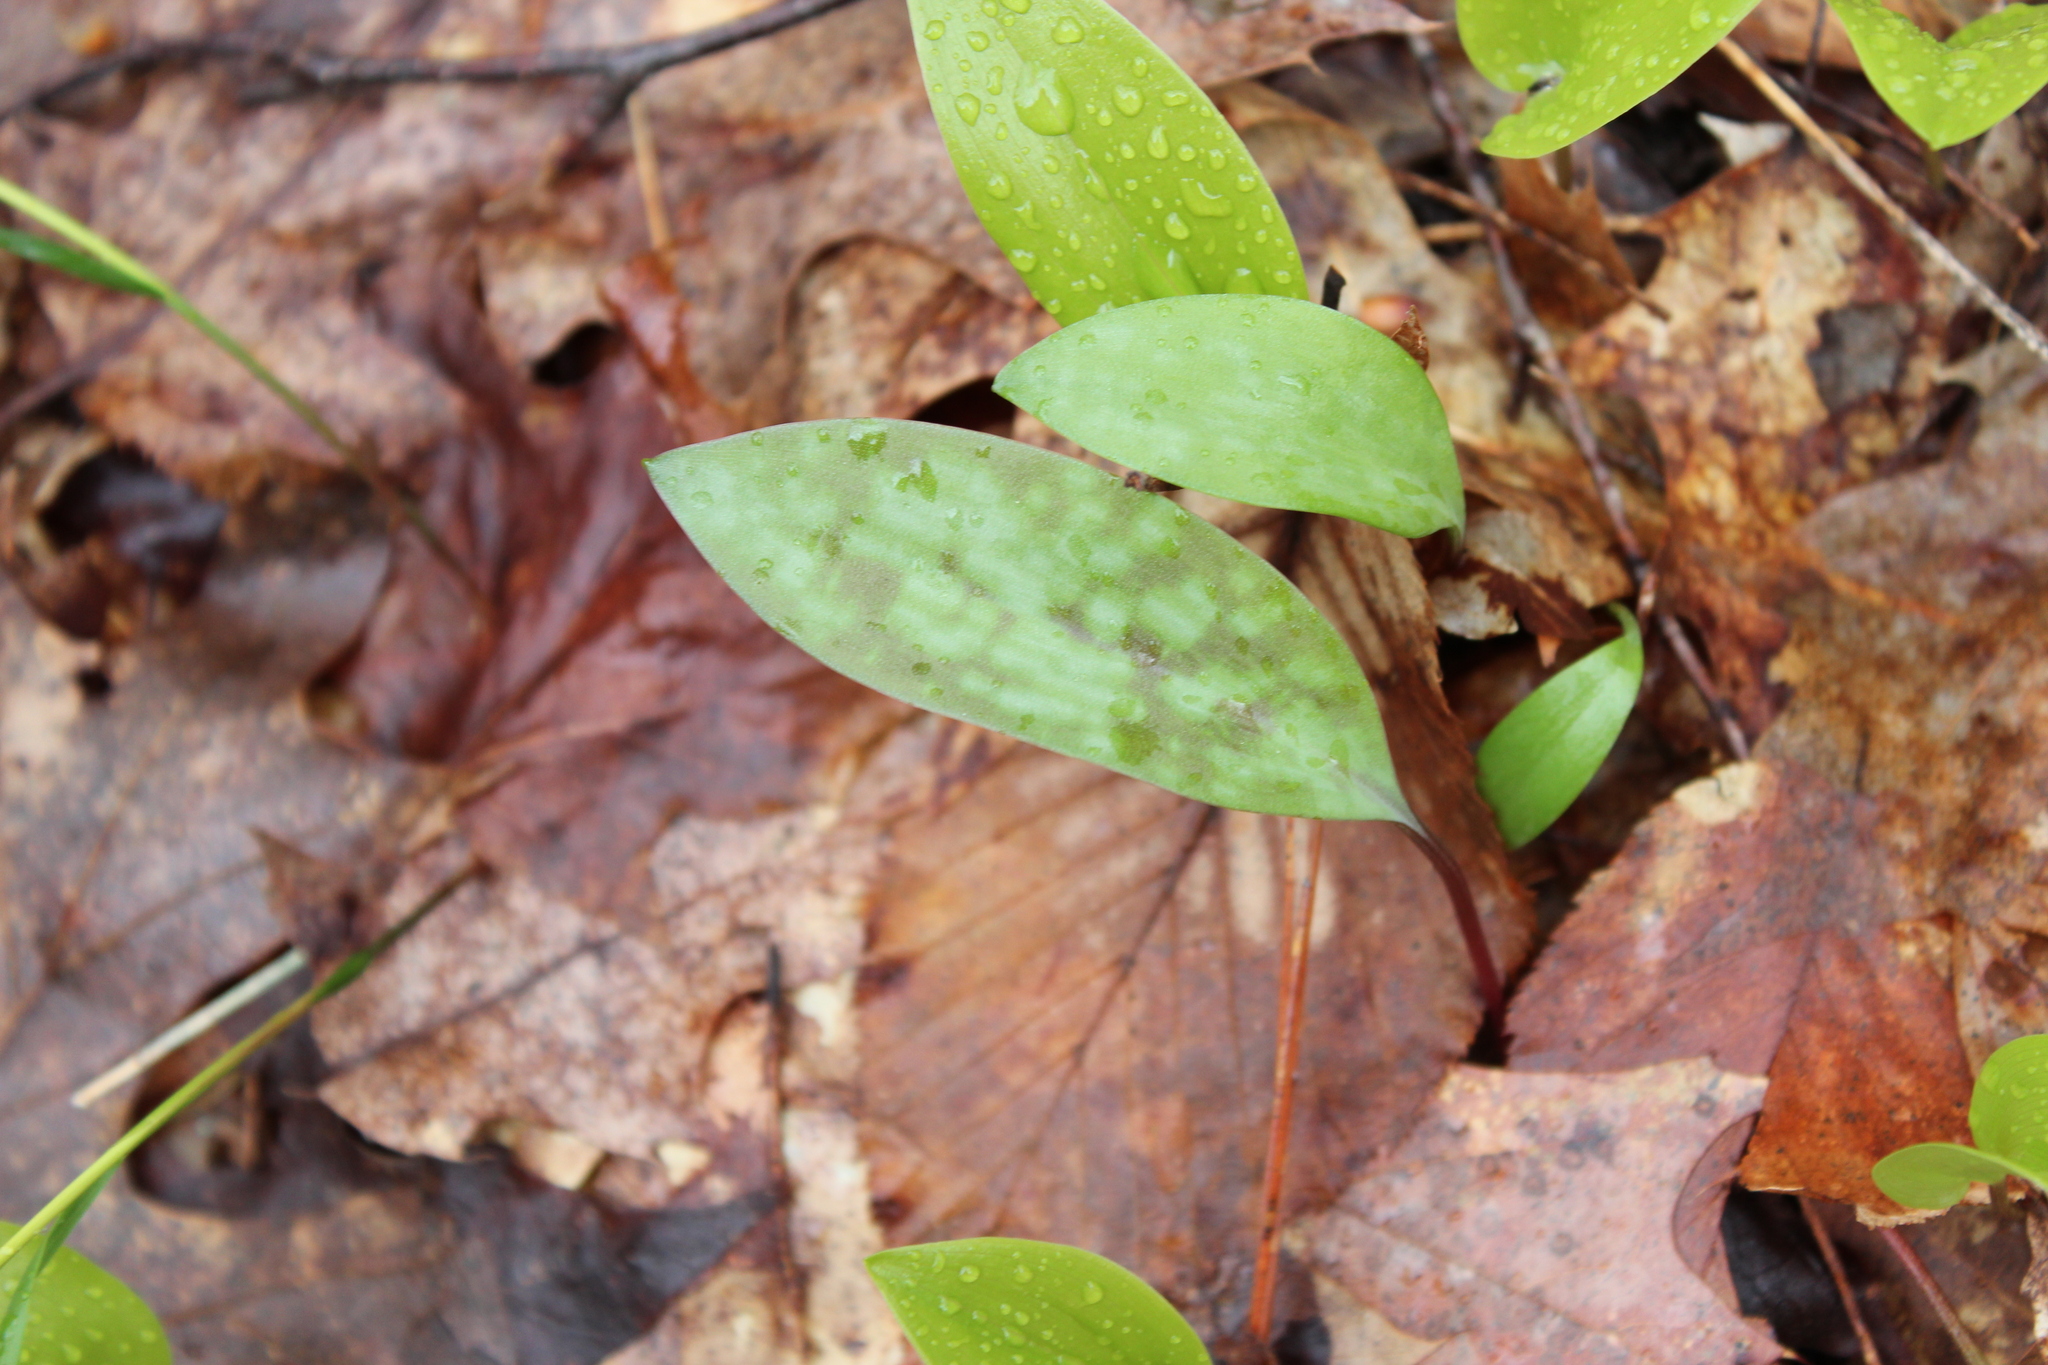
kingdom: Plantae
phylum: Tracheophyta
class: Liliopsida
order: Liliales
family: Liliaceae
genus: Erythronium
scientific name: Erythronium americanum
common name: Yellow adder's-tongue
